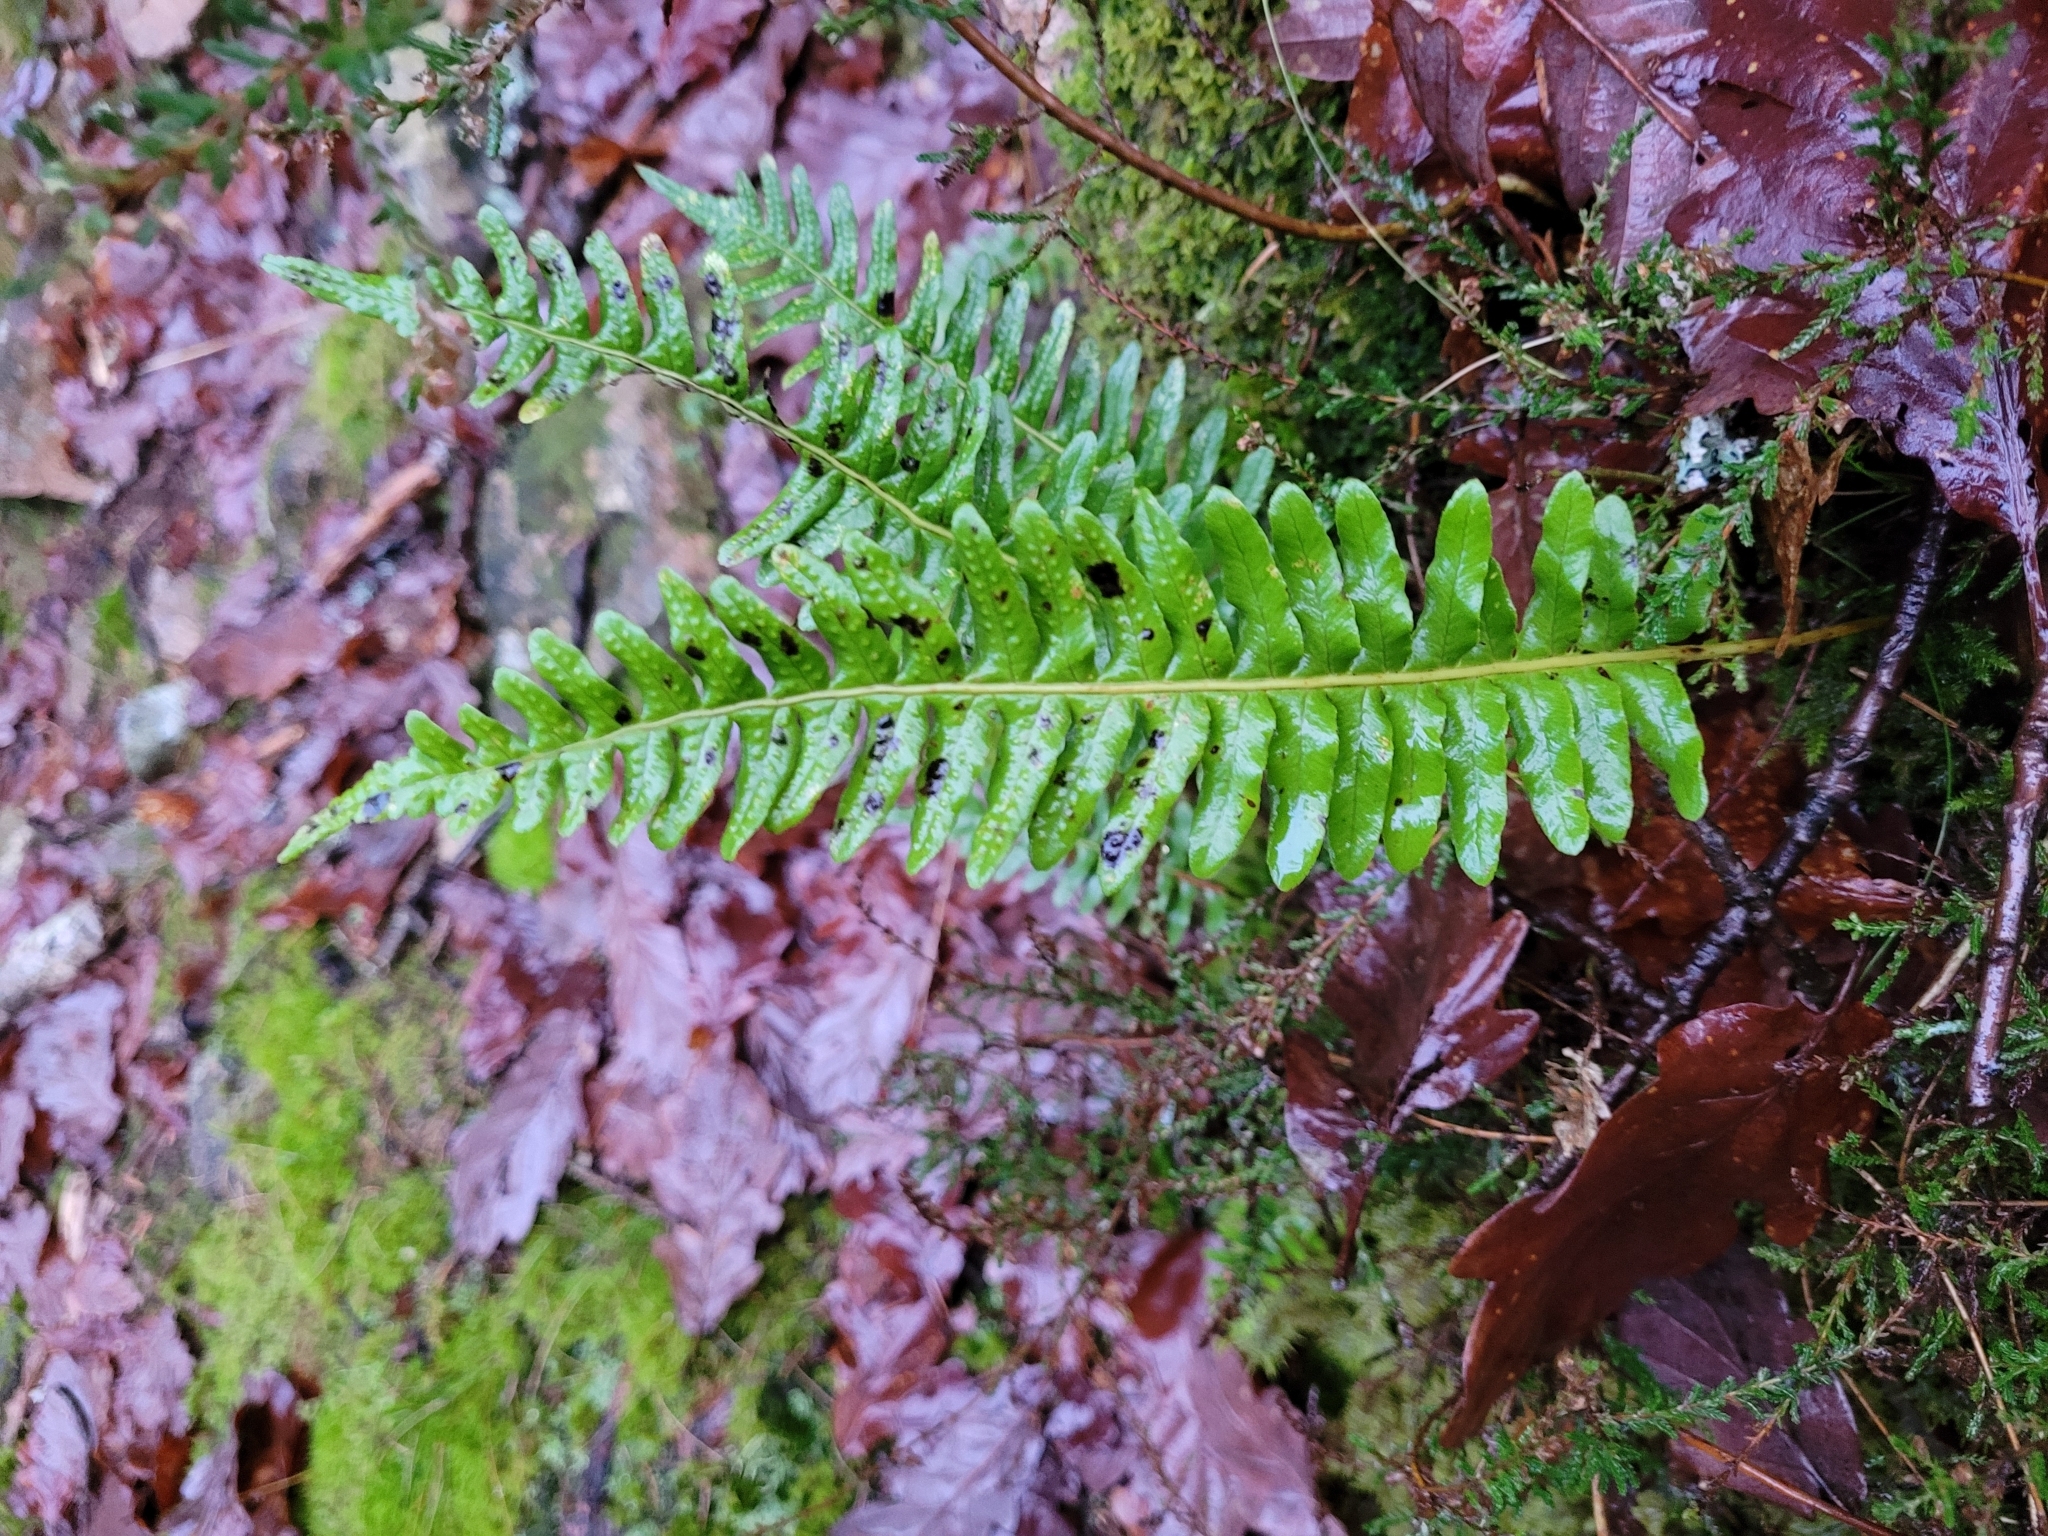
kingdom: Plantae
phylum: Tracheophyta
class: Polypodiopsida
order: Polypodiales
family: Polypodiaceae
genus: Polypodium
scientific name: Polypodium vulgare
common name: Common polypody
